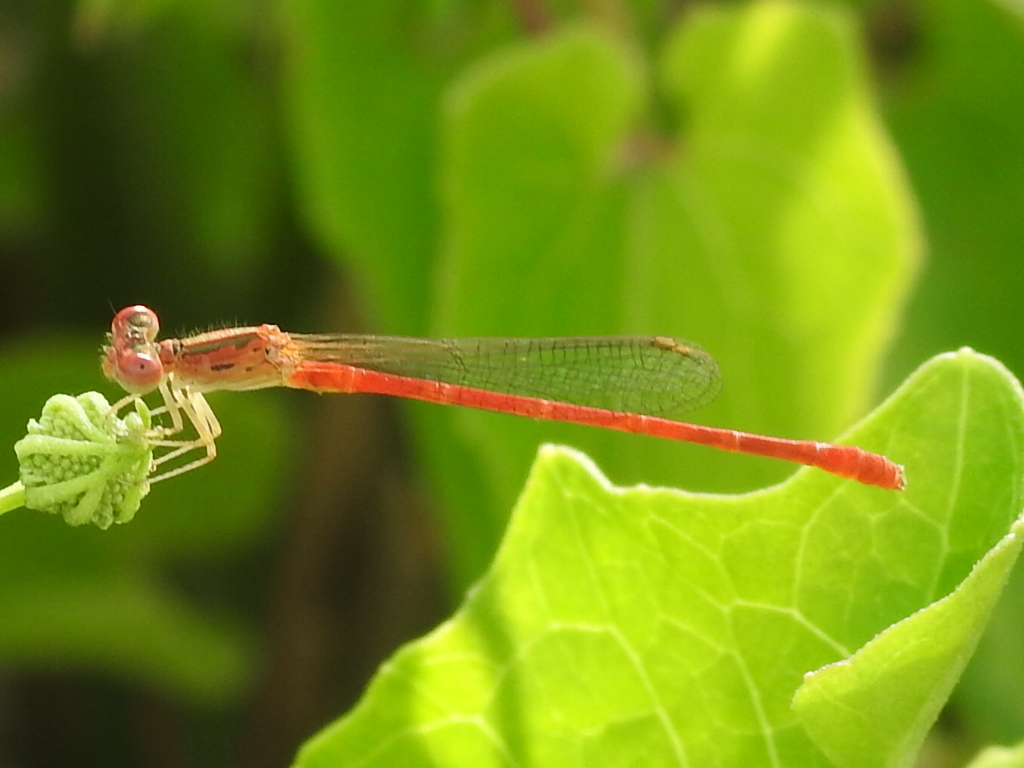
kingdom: Animalia
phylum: Arthropoda
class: Insecta
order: Odonata
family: Coenagrionidae
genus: Telebasis
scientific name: Telebasis salva
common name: Desert firetail
